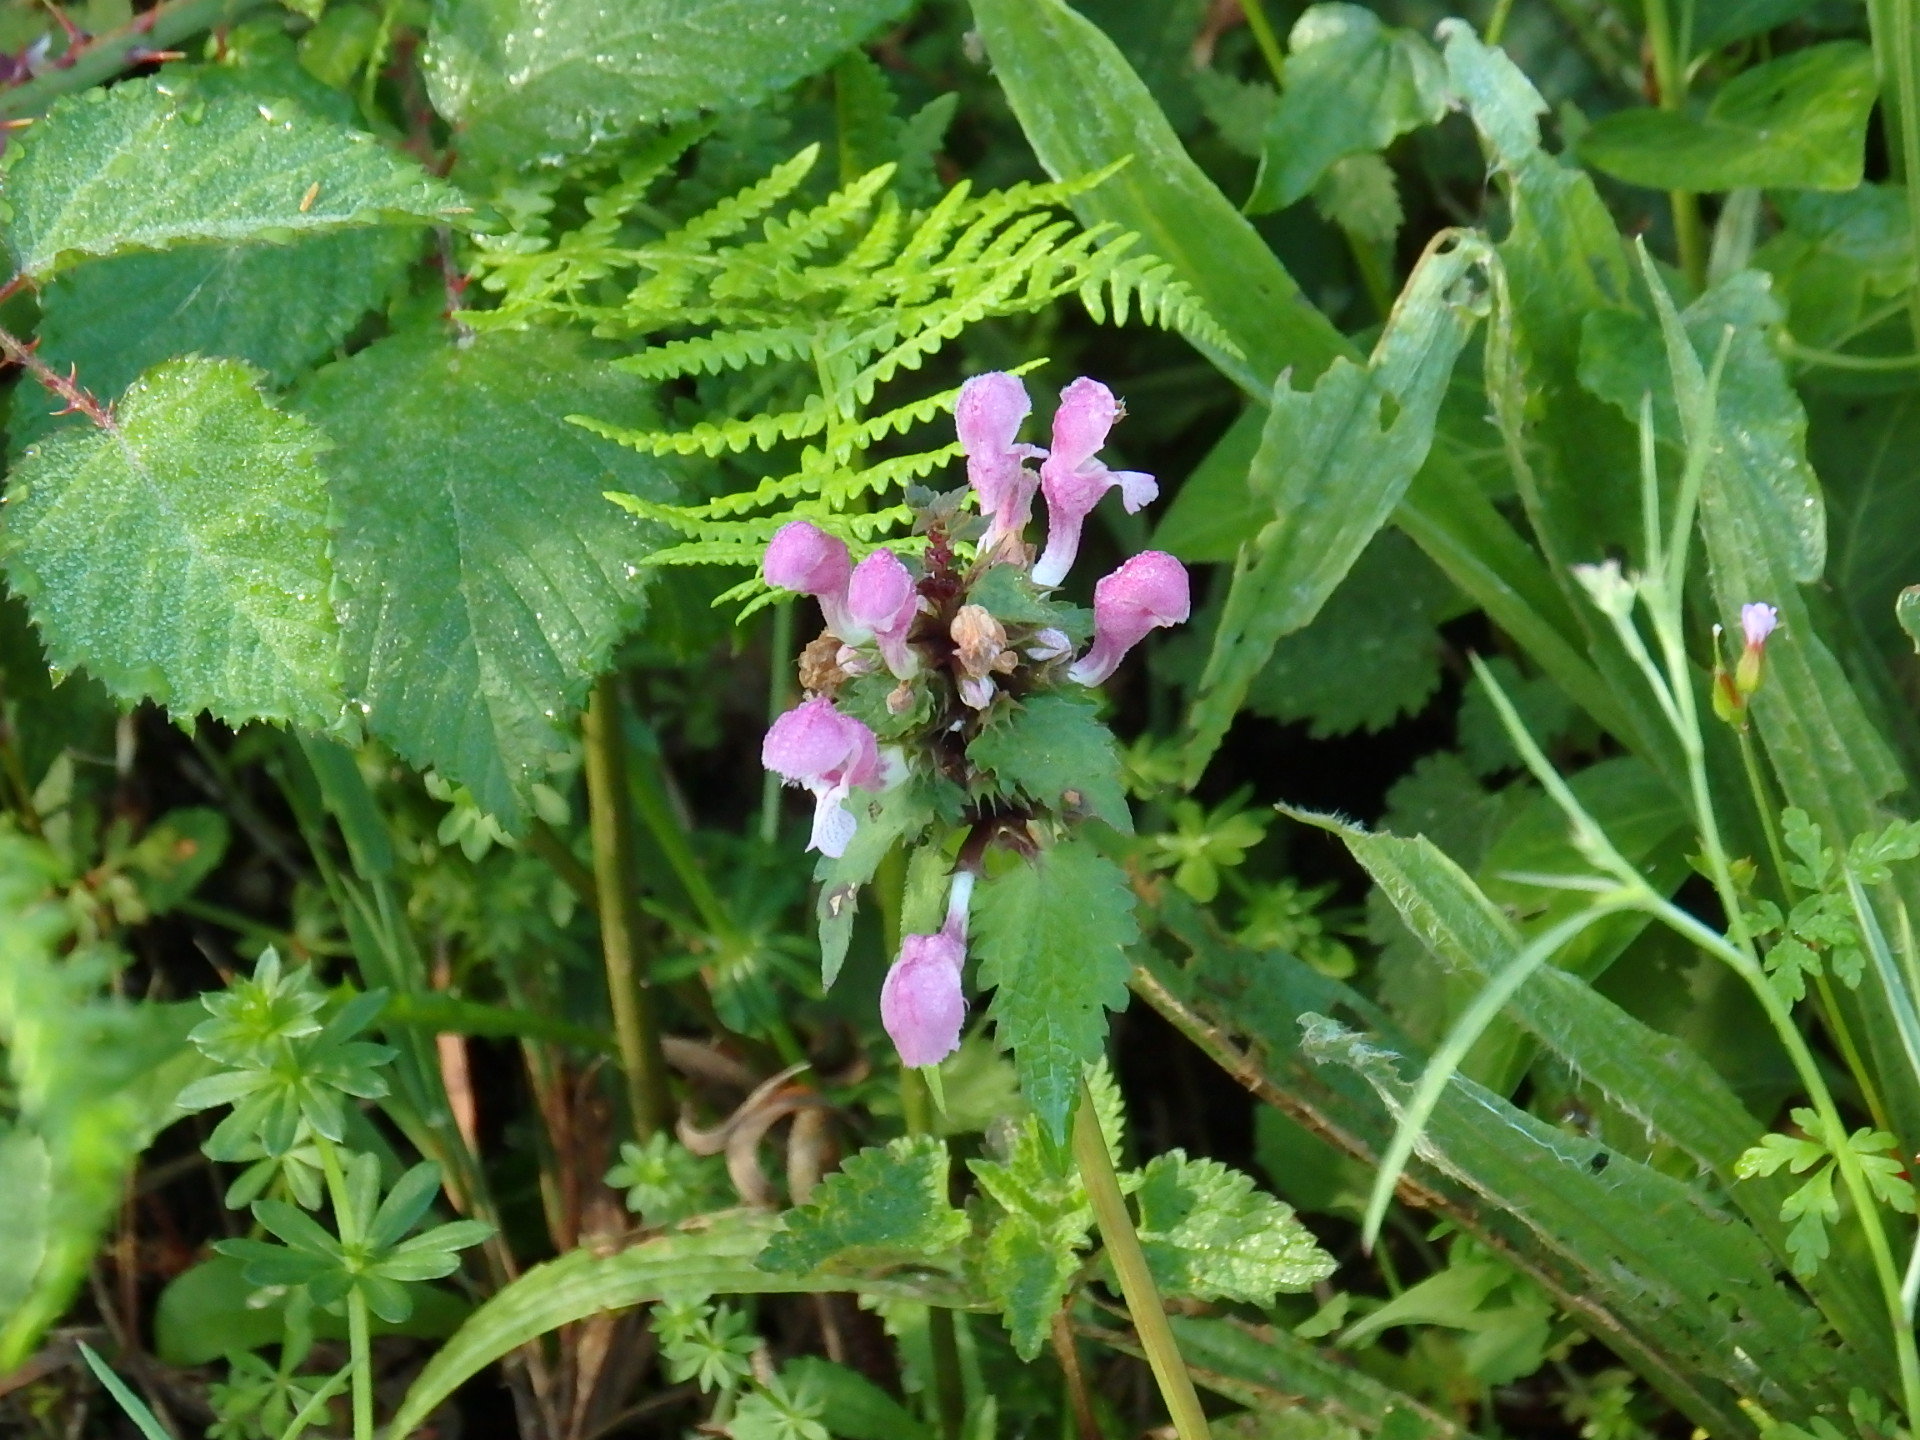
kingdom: Plantae
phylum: Tracheophyta
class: Magnoliopsida
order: Lamiales
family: Lamiaceae
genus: Lamium
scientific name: Lamium maculatum
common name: Spotted dead-nettle
